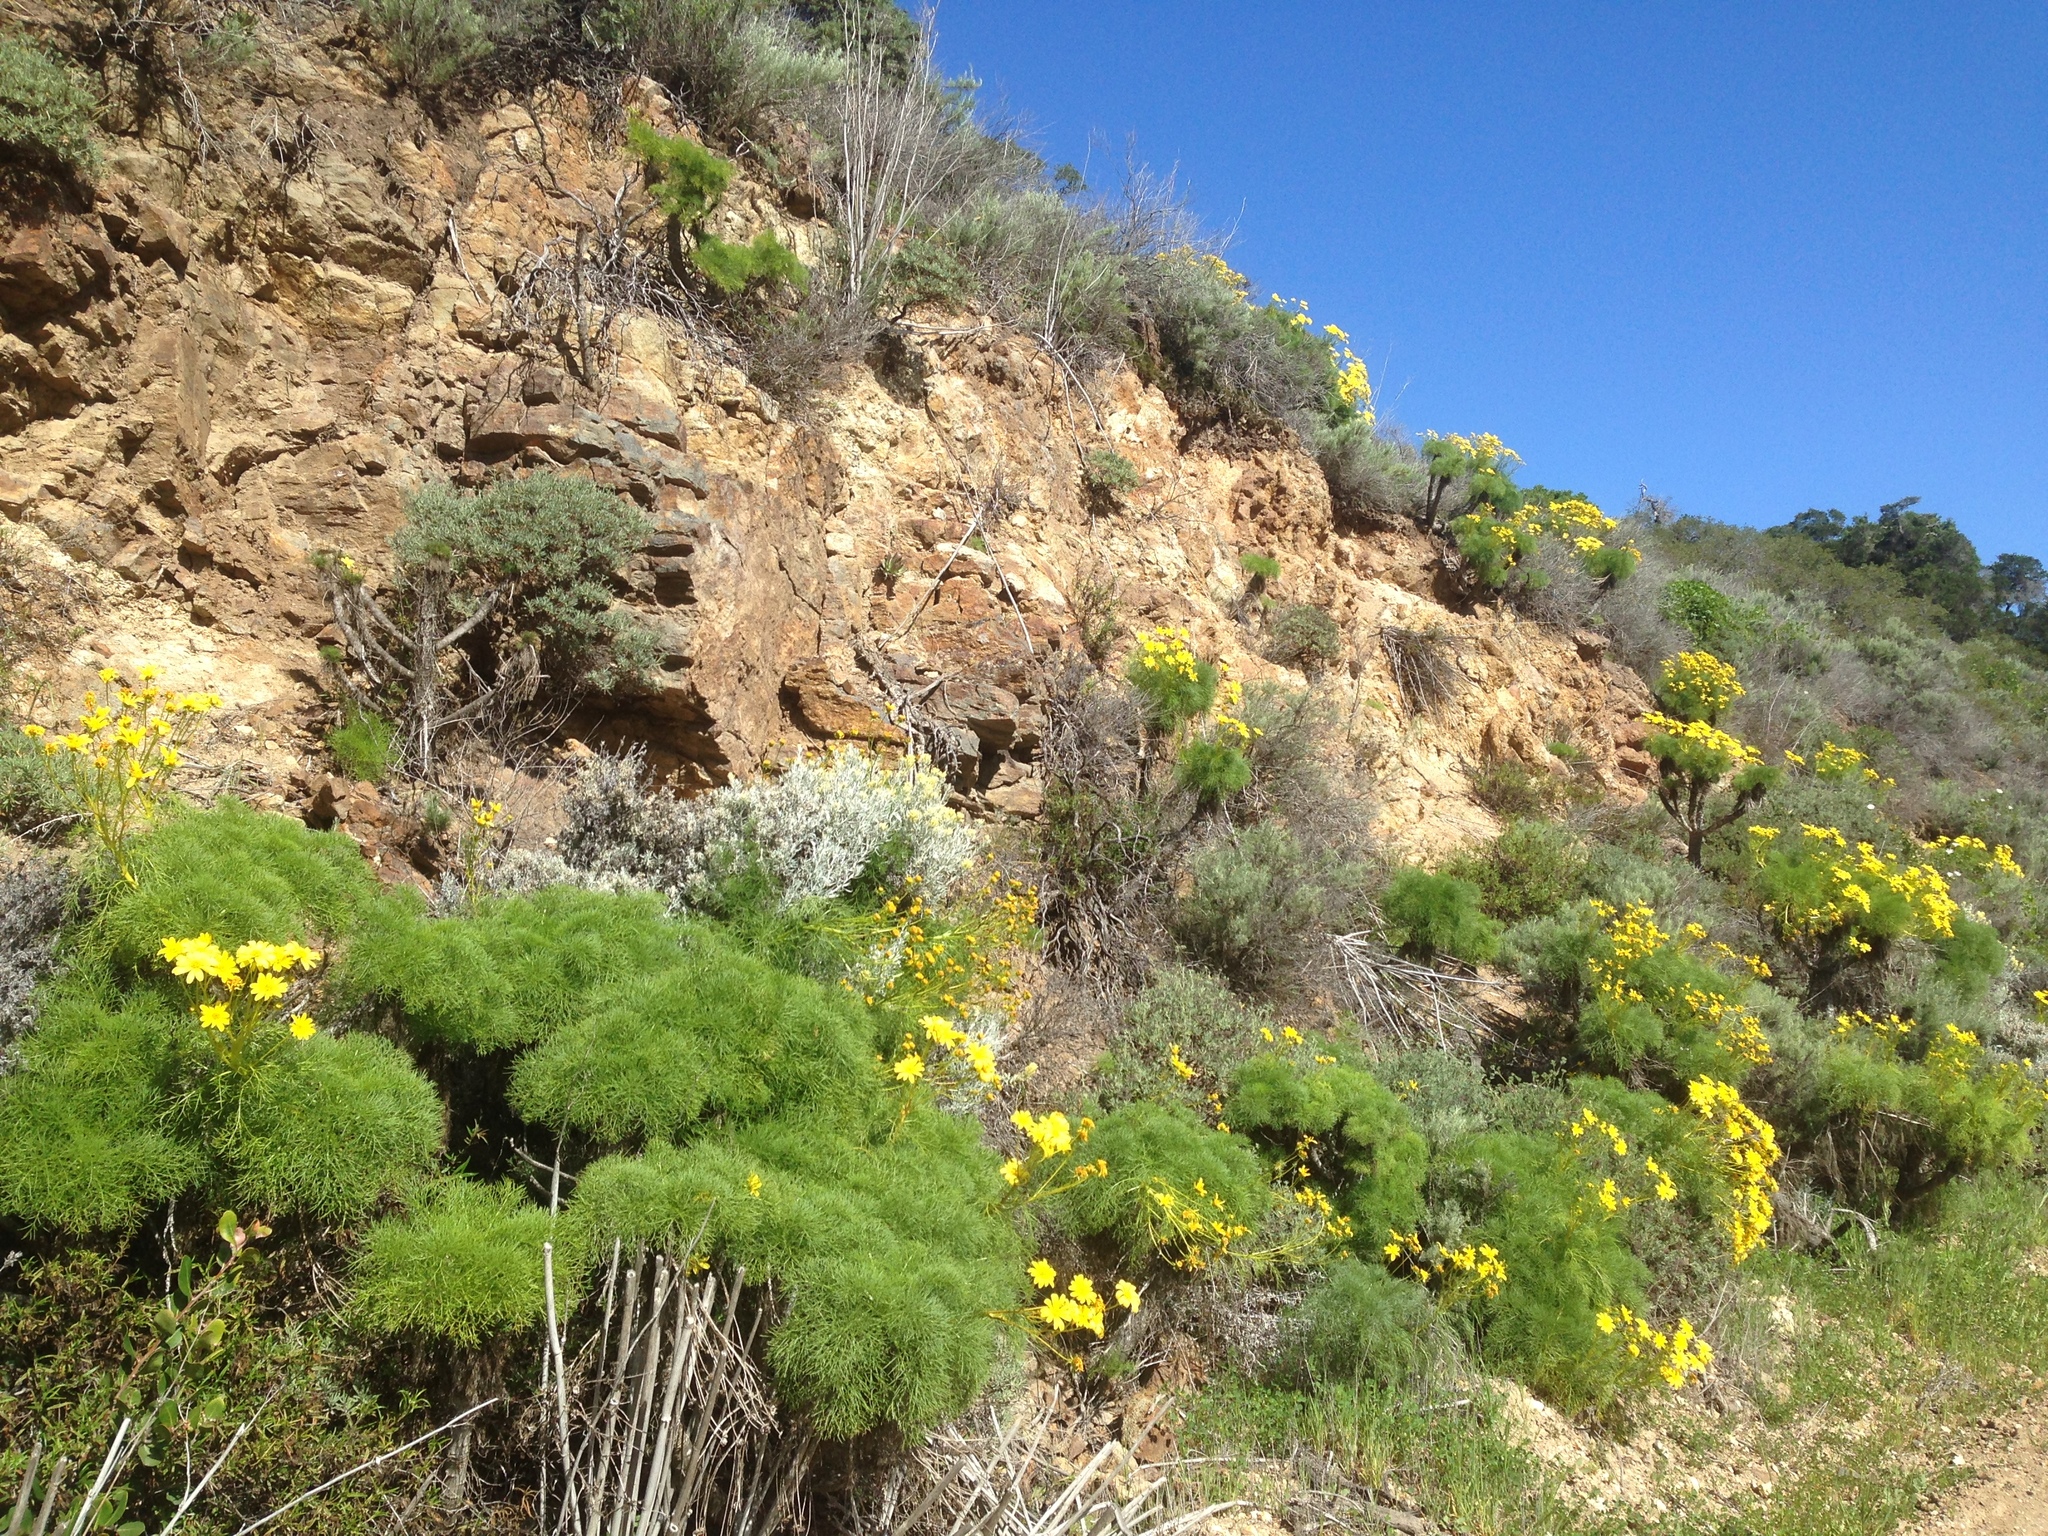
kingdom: Plantae
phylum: Tracheophyta
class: Magnoliopsida
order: Asterales
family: Asteraceae
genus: Coreopsis
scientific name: Coreopsis gigantea
